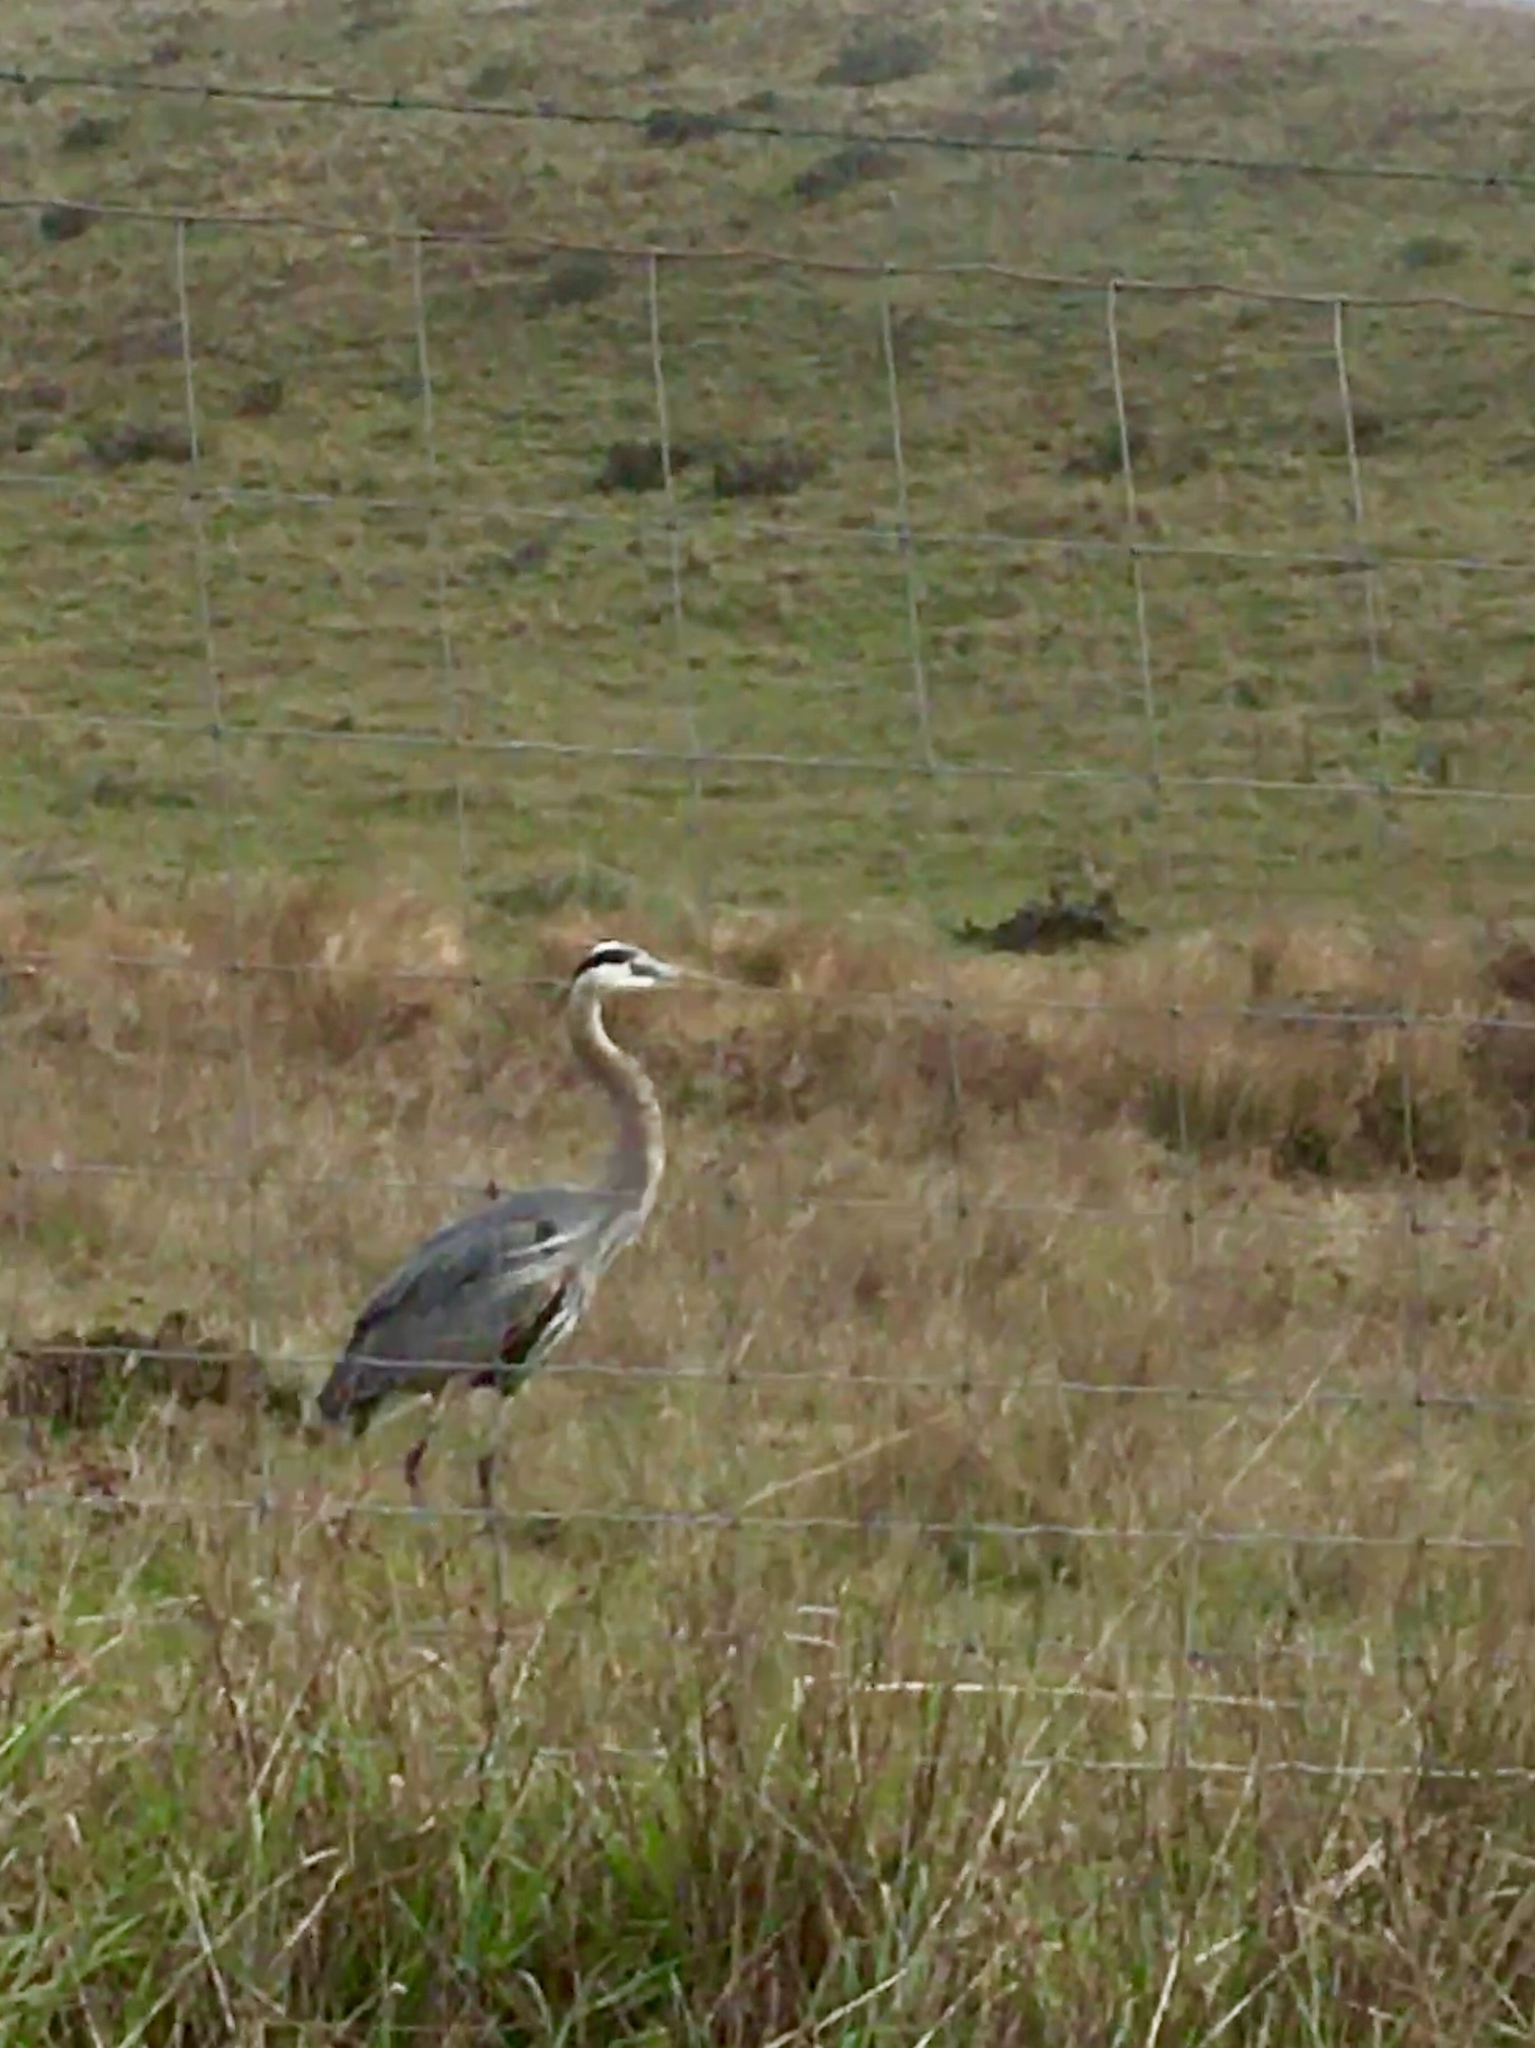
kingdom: Animalia
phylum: Chordata
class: Aves
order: Pelecaniformes
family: Ardeidae
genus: Ardea
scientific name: Ardea herodias
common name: Great blue heron
